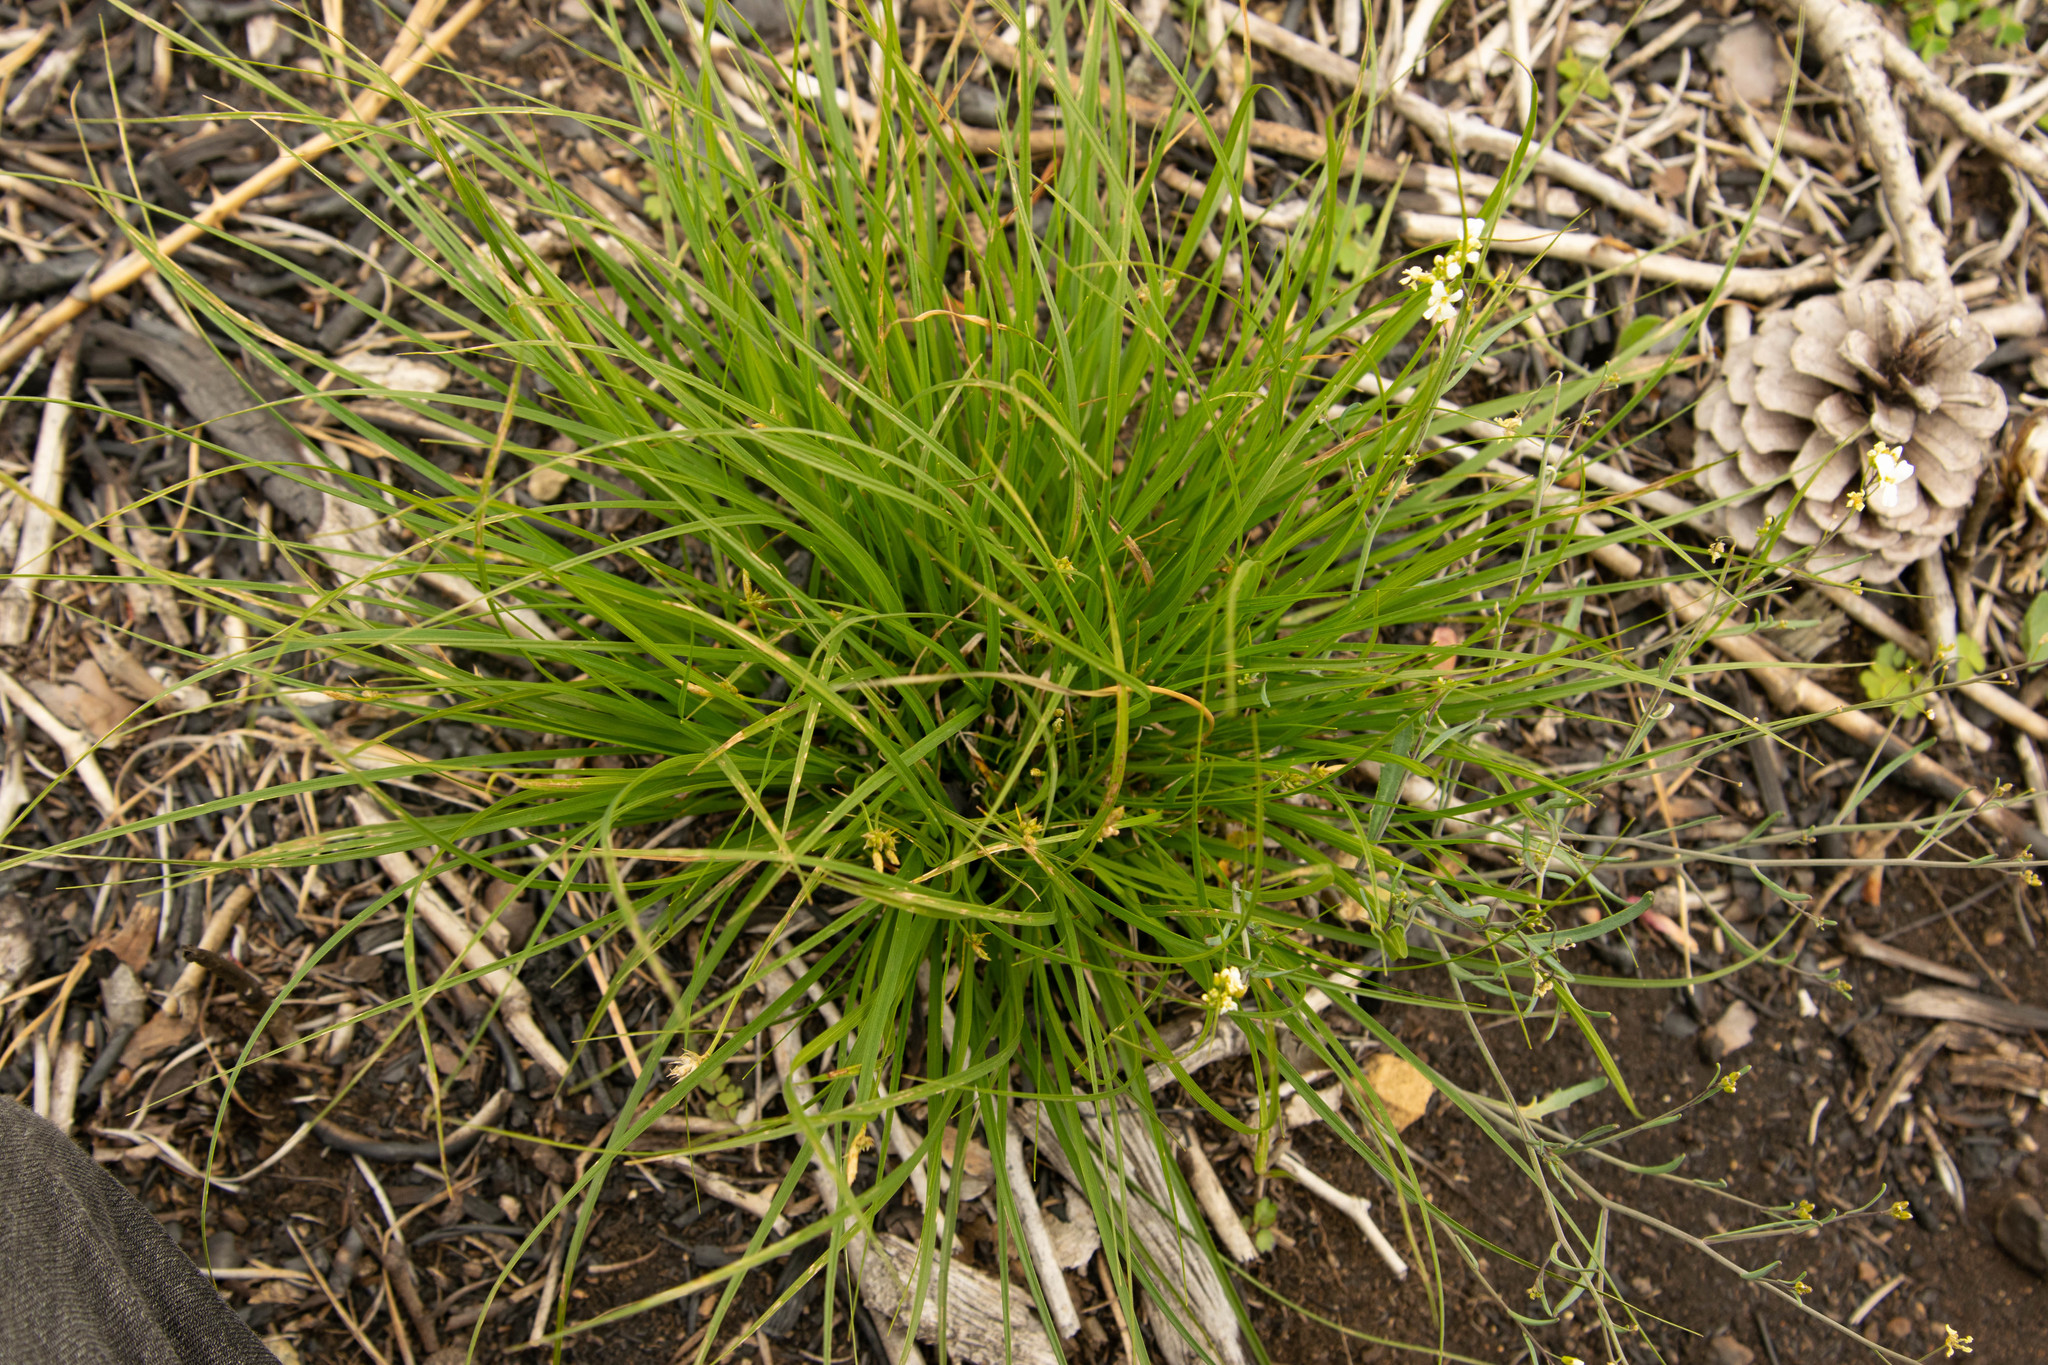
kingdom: Plantae
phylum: Tracheophyta
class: Liliopsida
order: Poales
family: Cyperaceae
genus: Carex
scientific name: Carex umbellata
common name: Early oak sedge
